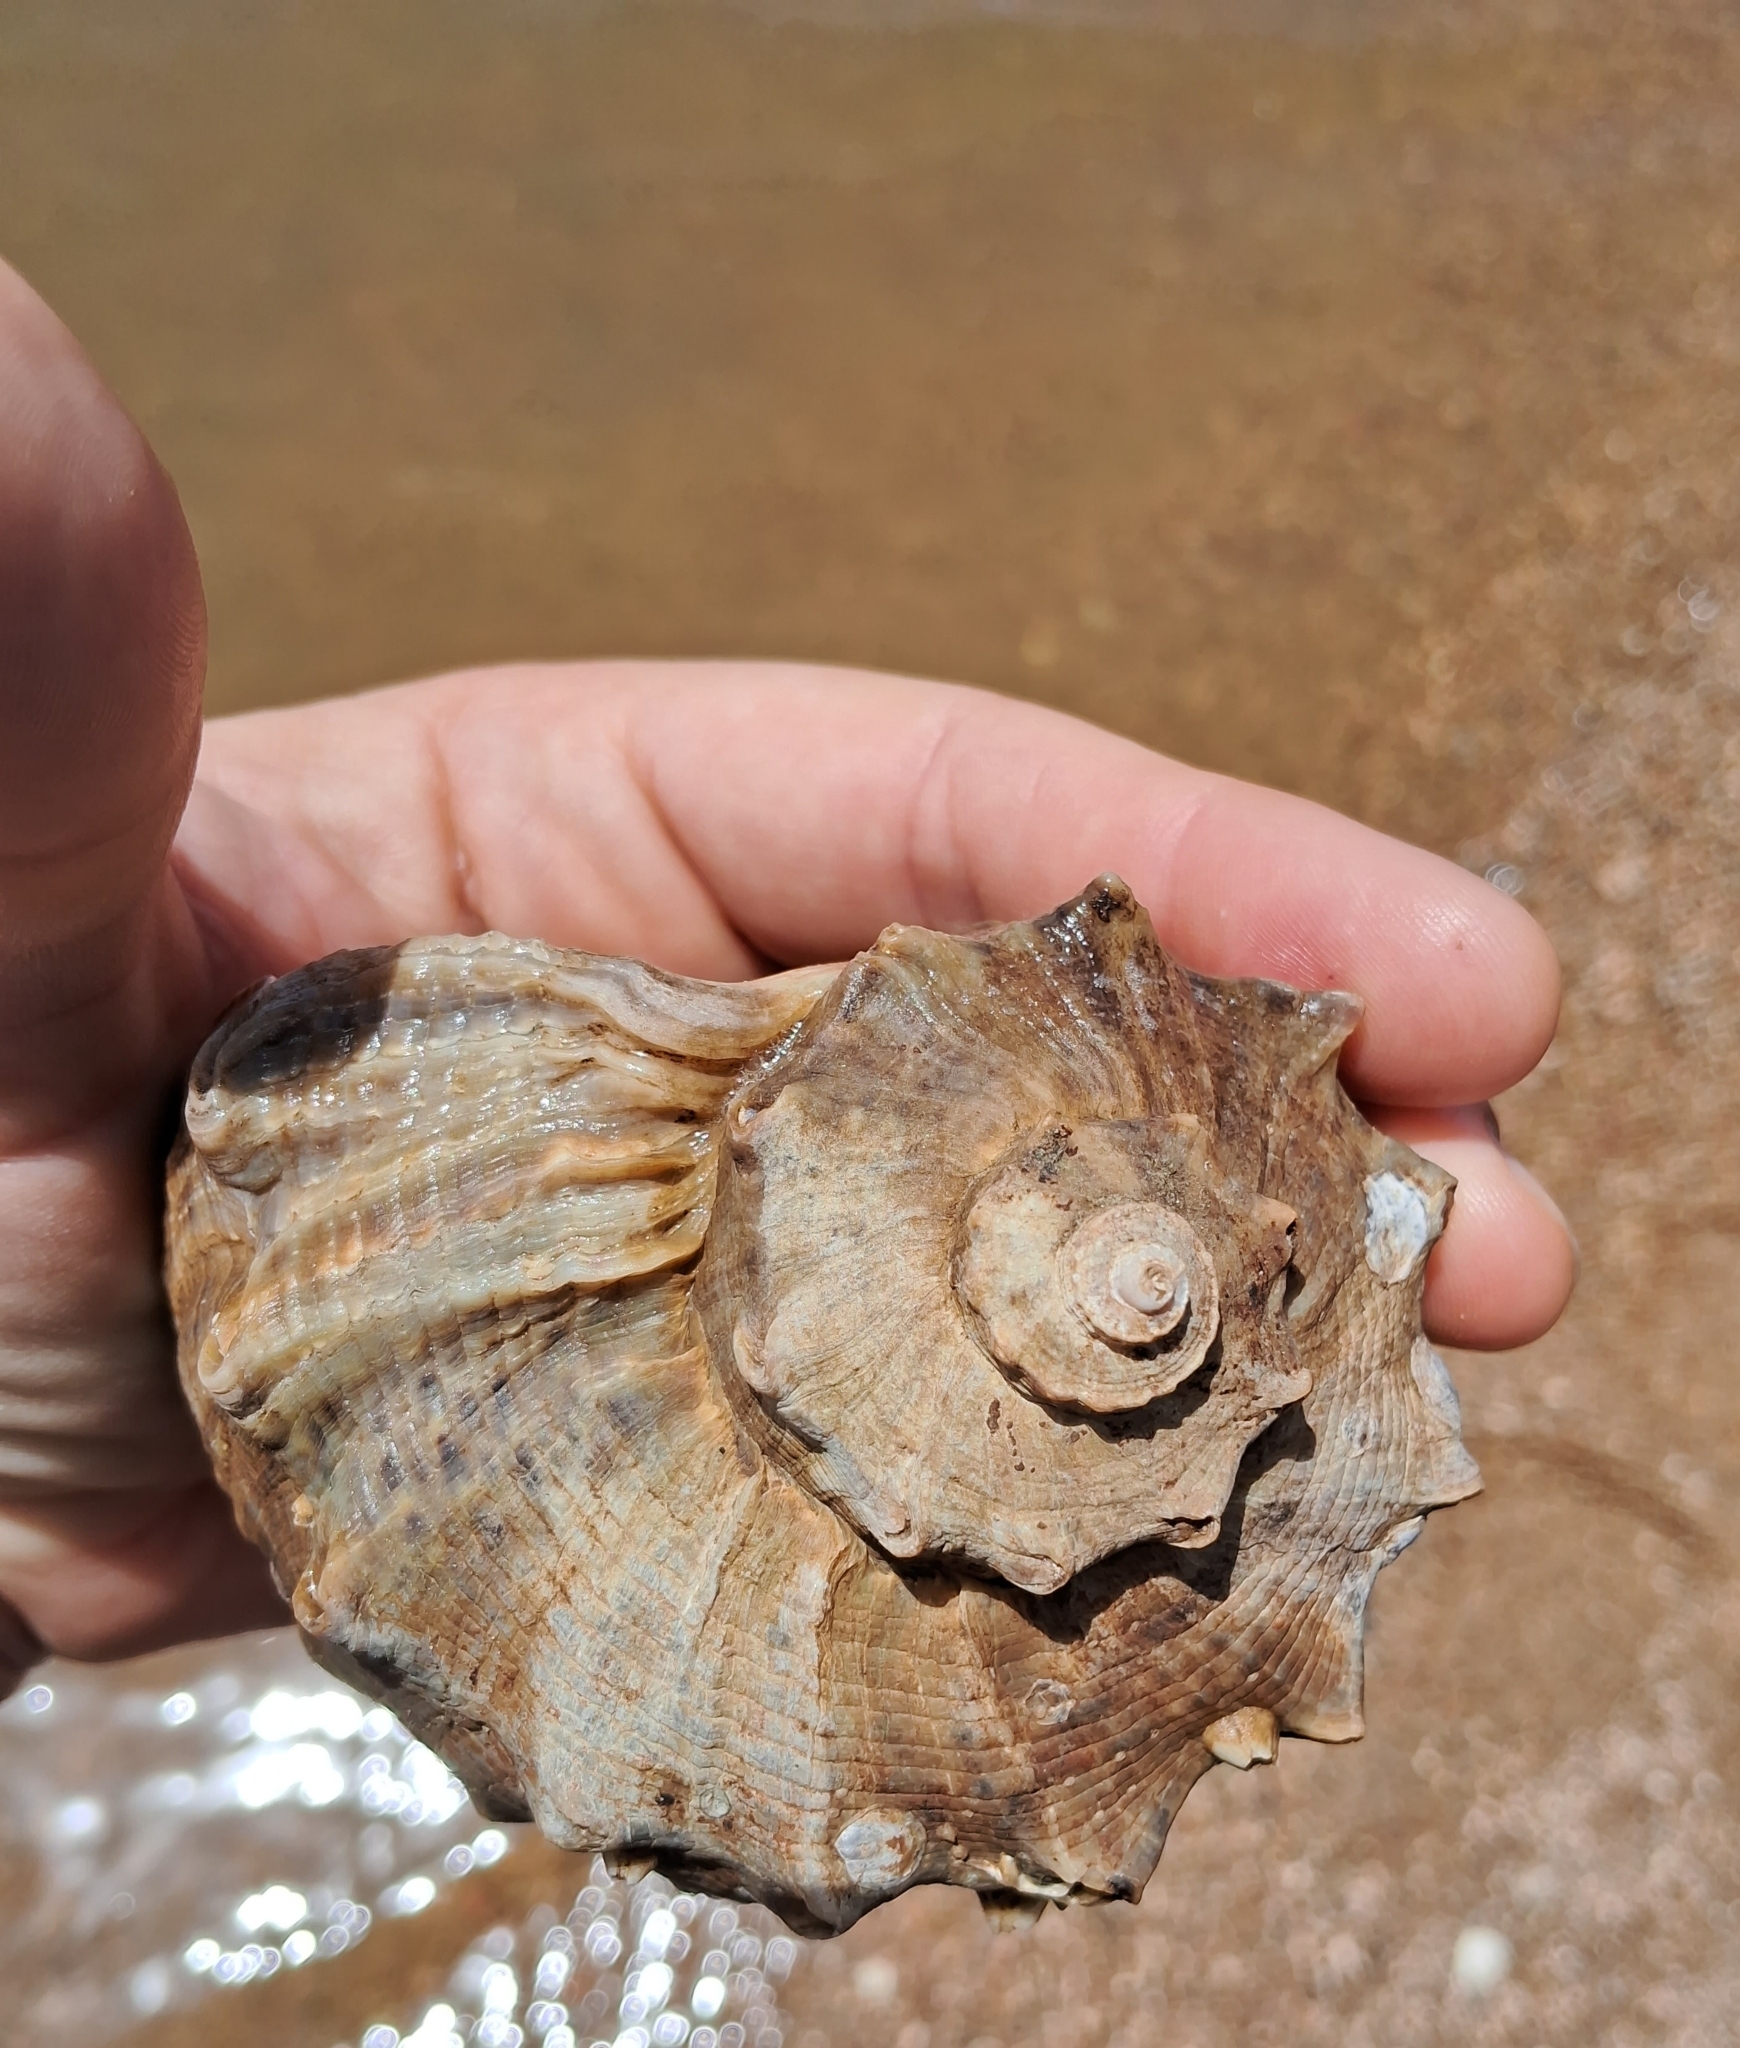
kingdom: Animalia
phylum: Mollusca
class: Gastropoda
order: Neogastropoda
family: Muricidae
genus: Rapana
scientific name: Rapana venosa
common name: Veined rapa whelk
